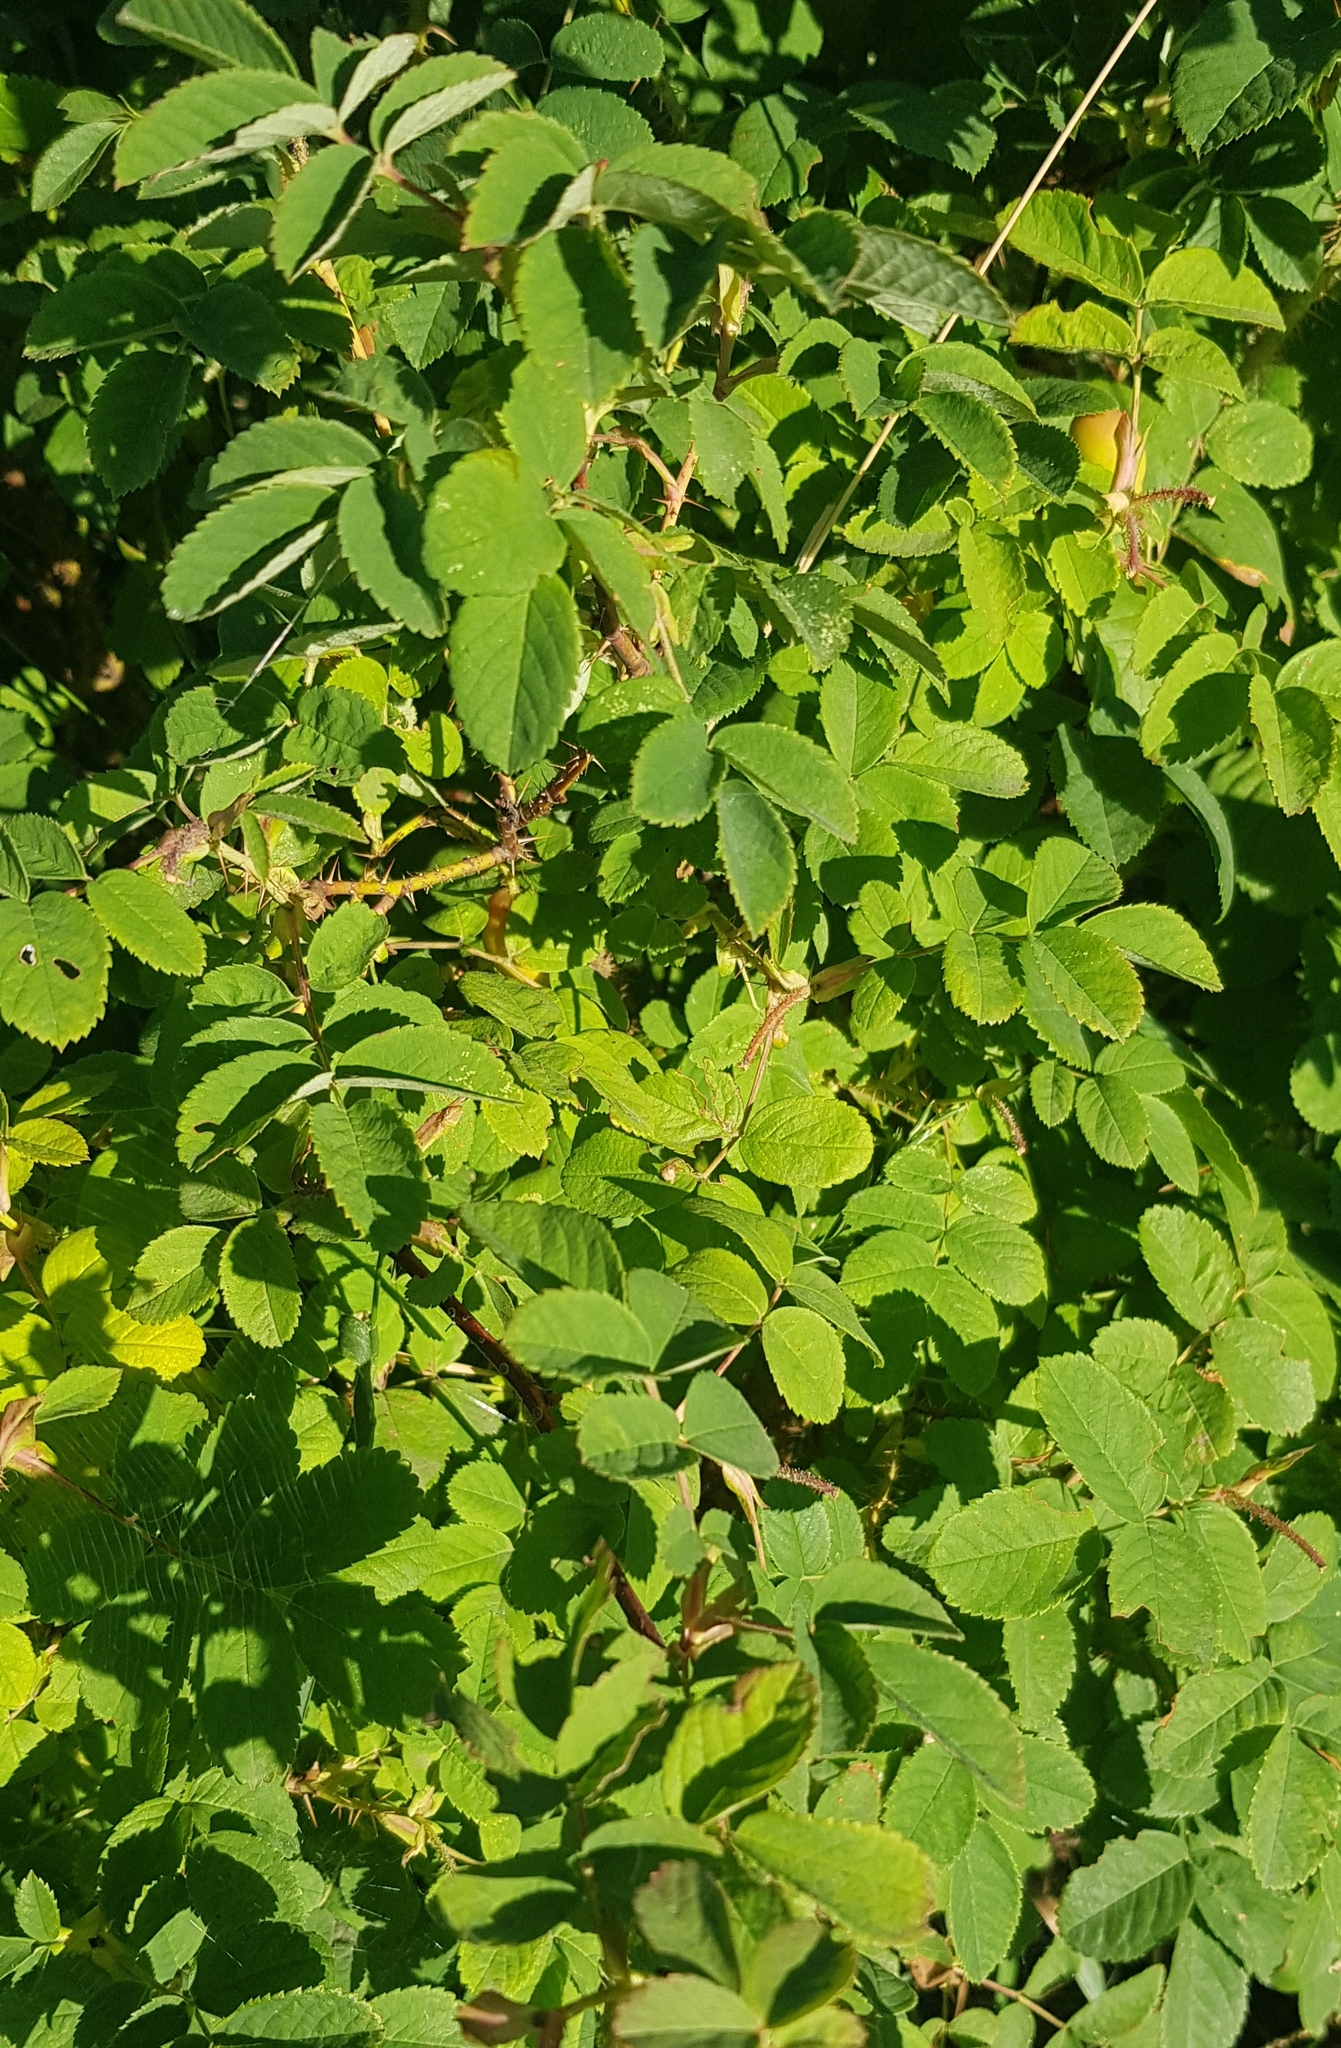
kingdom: Plantae
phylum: Tracheophyta
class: Magnoliopsida
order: Rosales
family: Rosaceae
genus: Rosa
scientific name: Rosa acicularis
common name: Prickly rose
